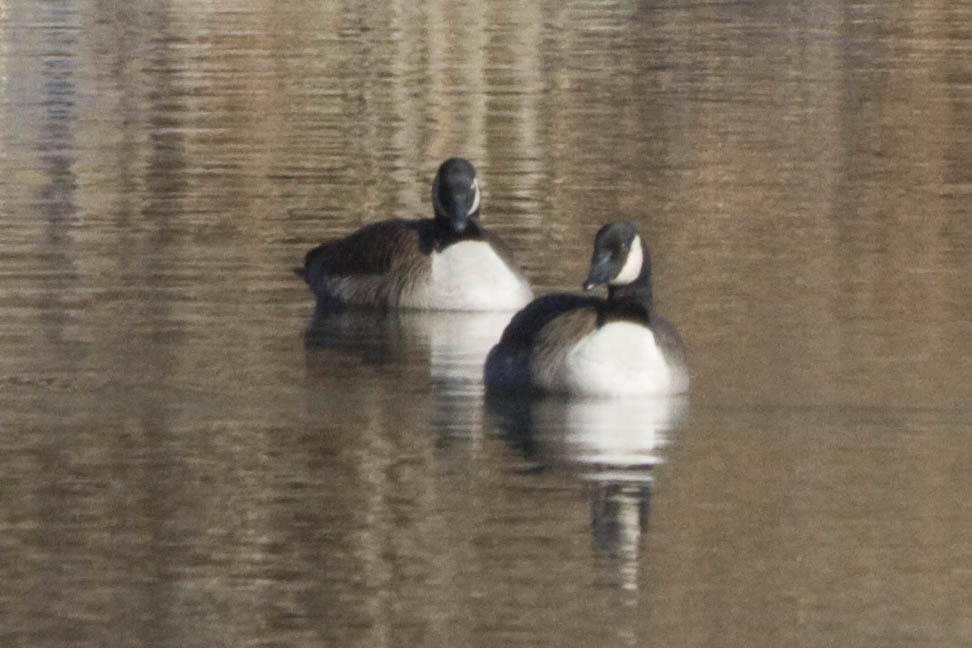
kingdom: Animalia
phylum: Chordata
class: Aves
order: Anseriformes
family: Anatidae
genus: Branta
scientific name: Branta canadensis
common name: Canada goose
